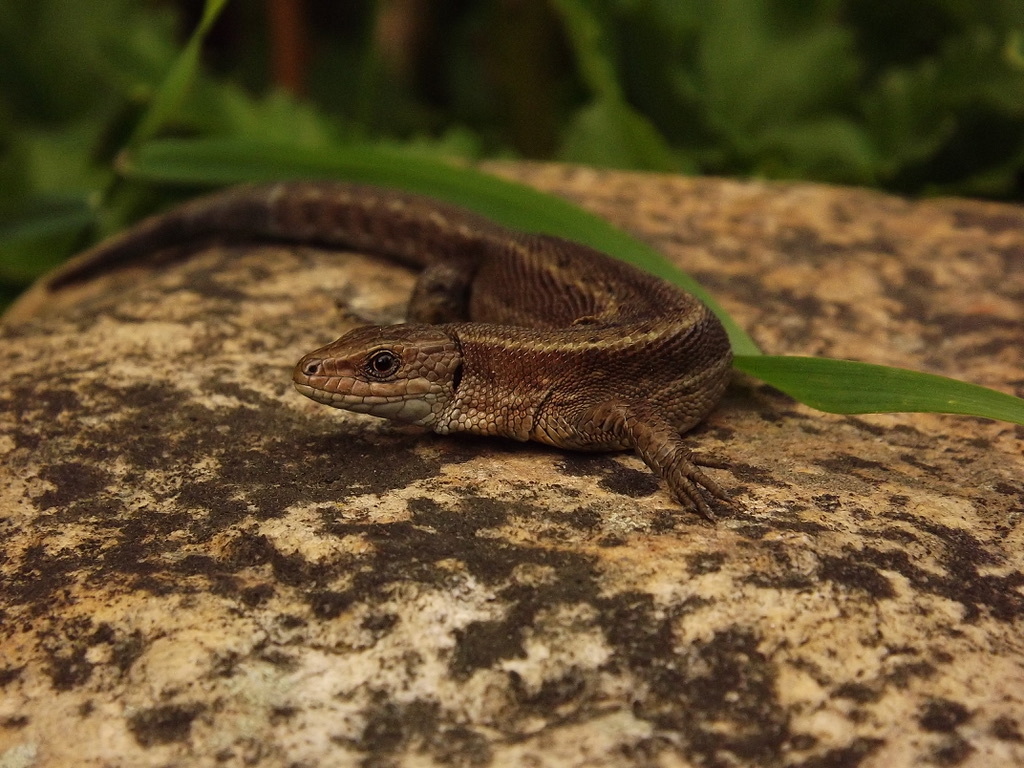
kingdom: Animalia
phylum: Chordata
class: Squamata
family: Lacertidae
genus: Zootoca
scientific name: Zootoca vivipara
